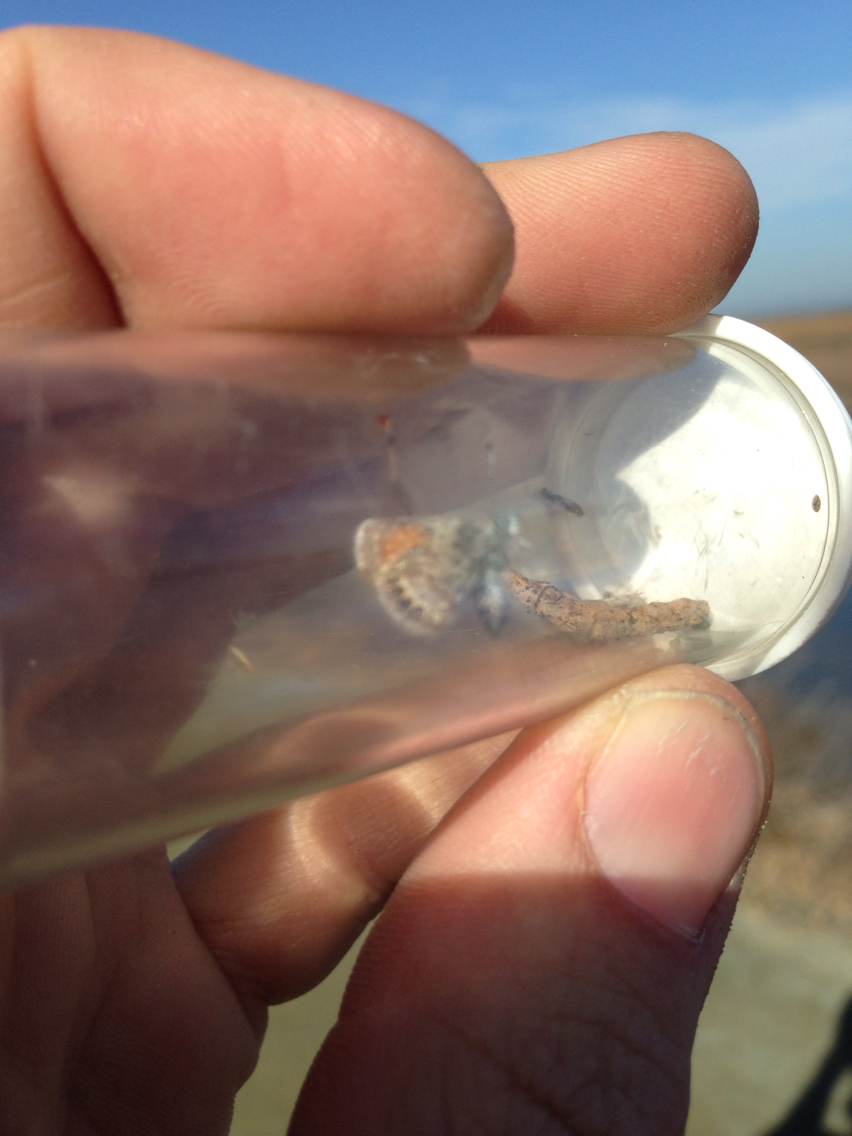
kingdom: Animalia
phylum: Arthropoda
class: Insecta
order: Lepidoptera
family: Lycaenidae
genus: Brephidium
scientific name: Brephidium exilis
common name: Pygmy blue
